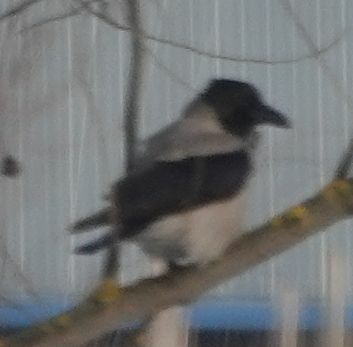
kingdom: Animalia
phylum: Chordata
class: Aves
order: Passeriformes
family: Corvidae
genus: Corvus
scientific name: Corvus cornix
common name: Hooded crow
